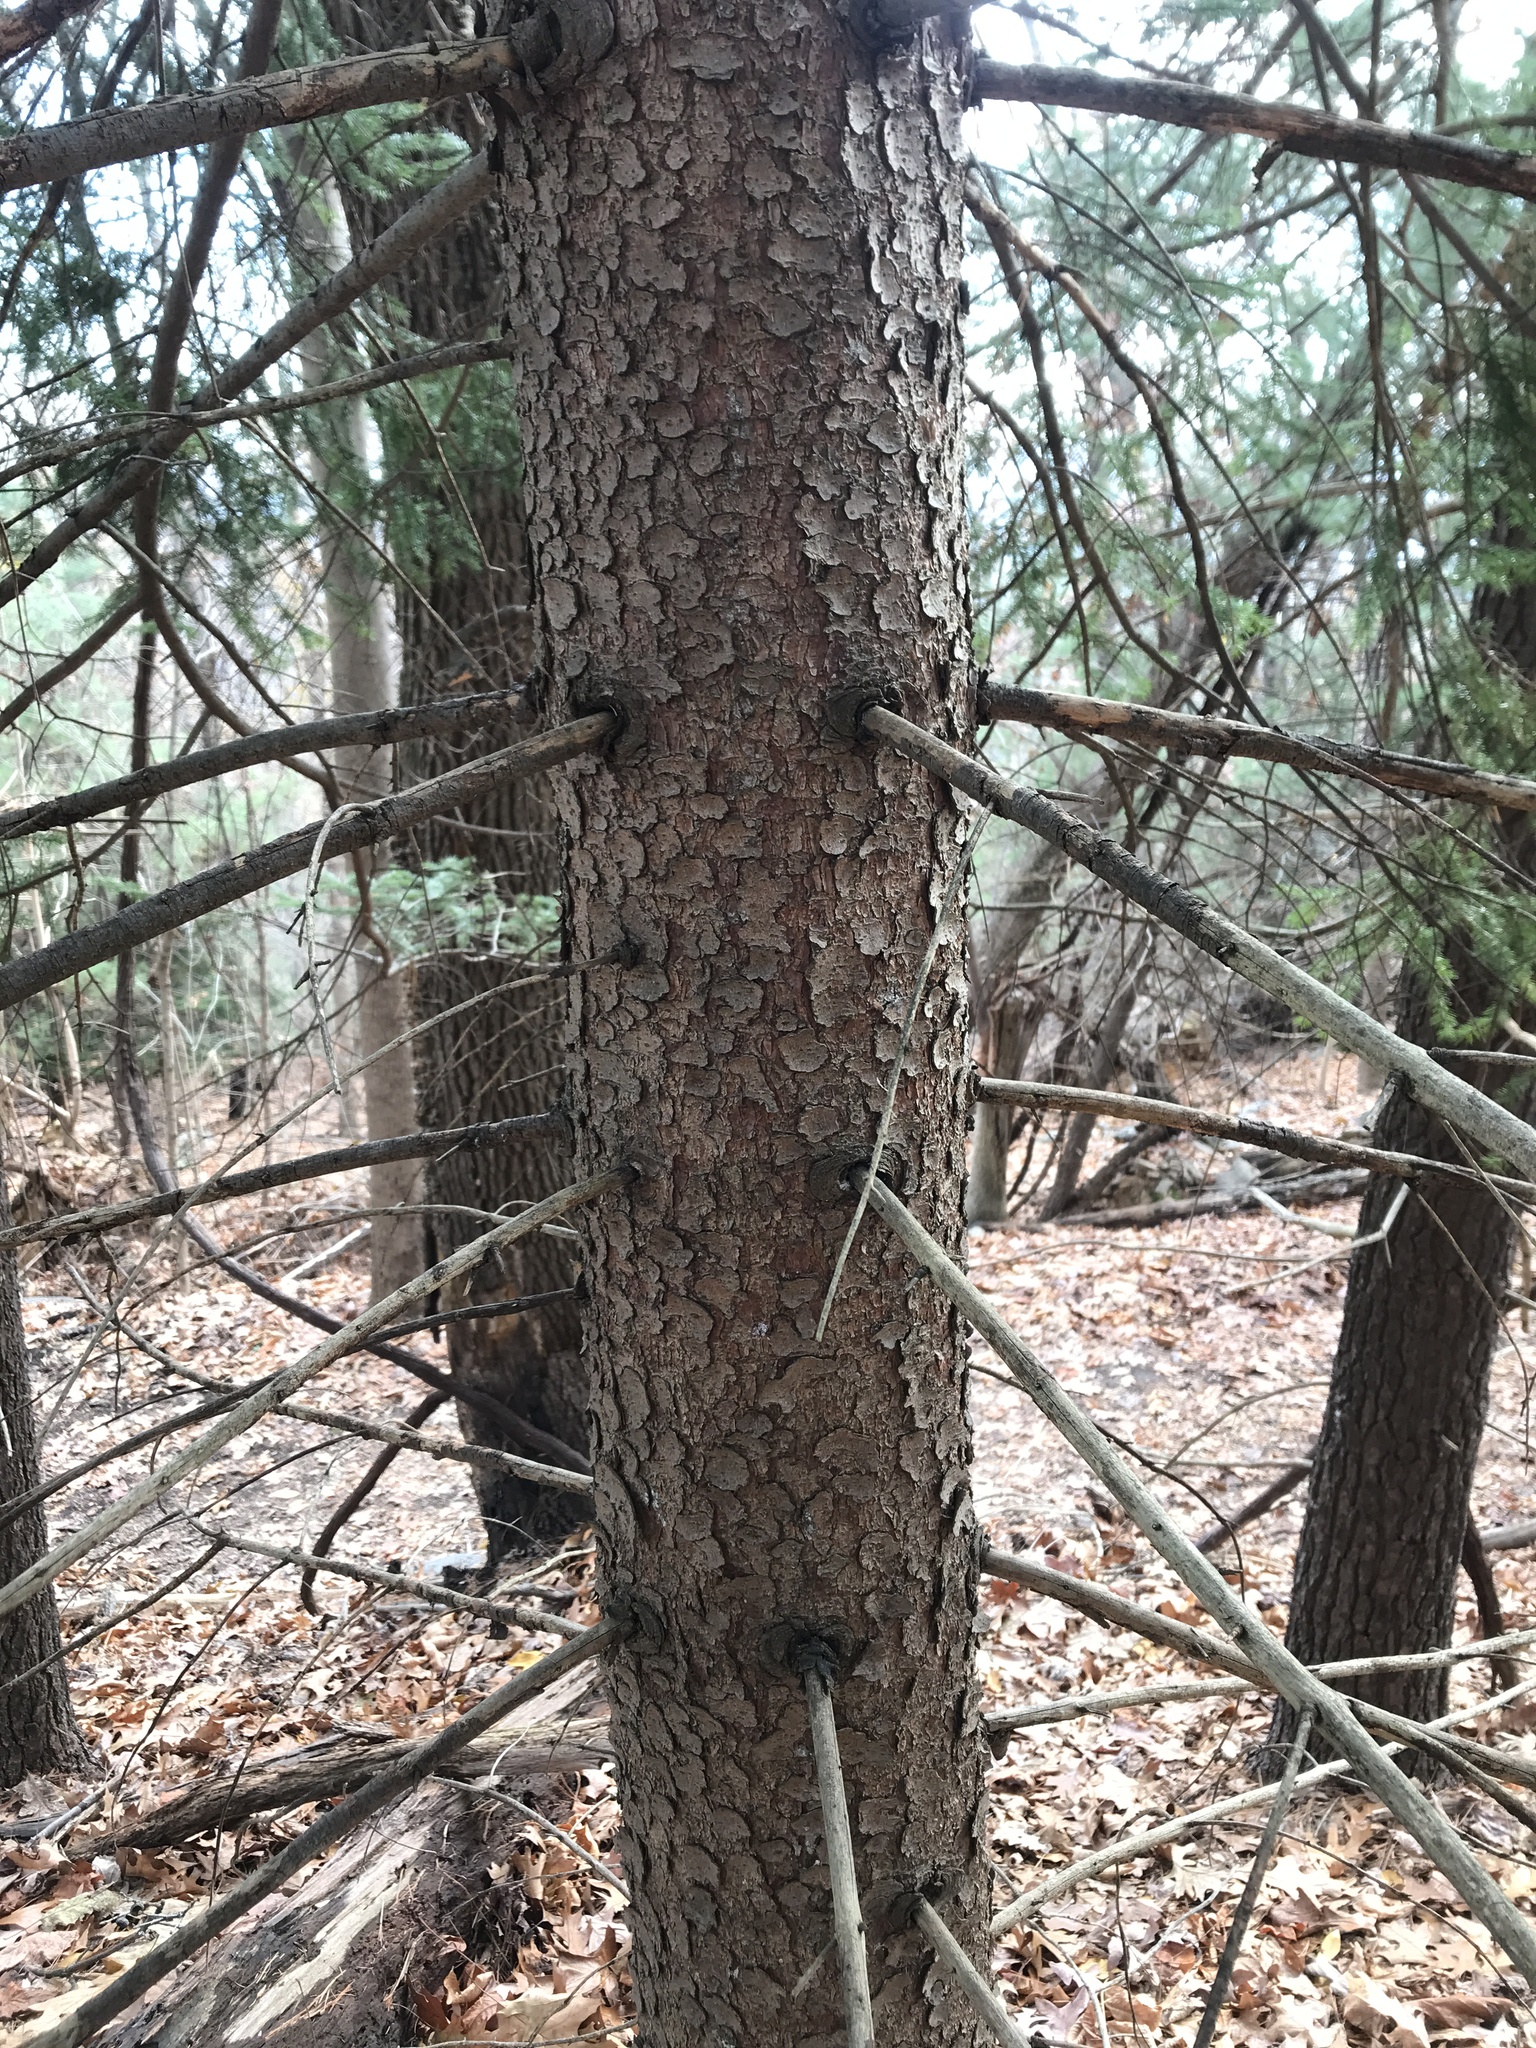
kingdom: Plantae
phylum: Tracheophyta
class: Pinopsida
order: Pinales
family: Pinaceae
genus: Picea
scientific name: Picea abies
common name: Norway spruce
